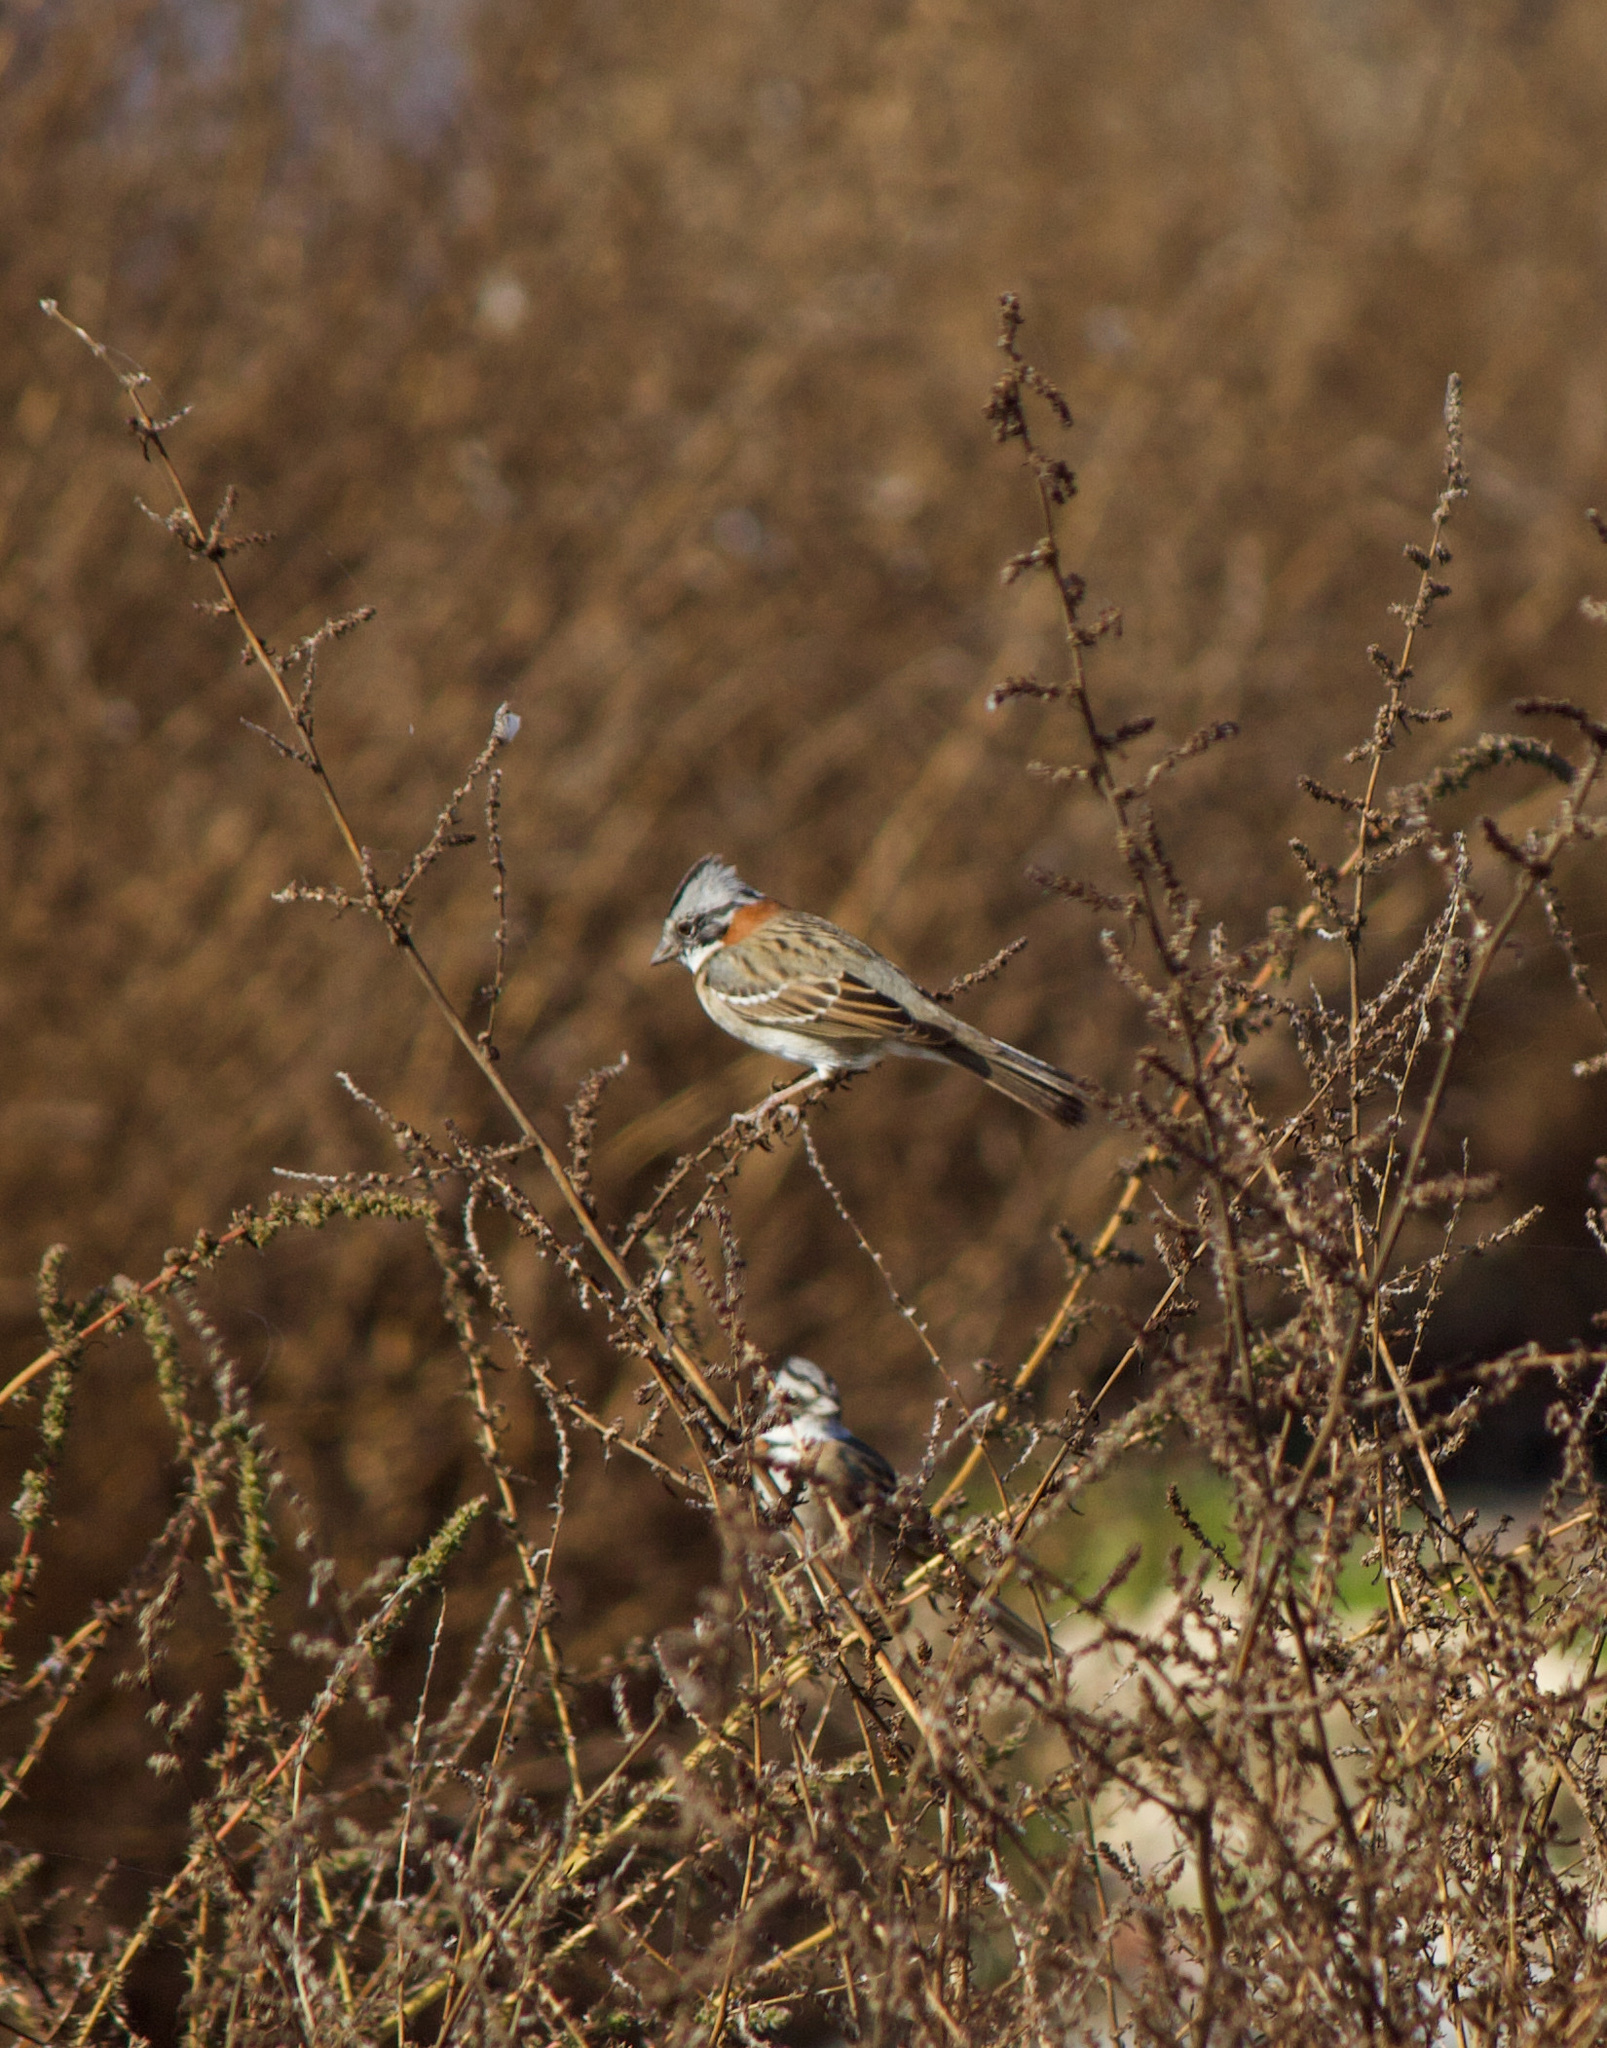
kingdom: Animalia
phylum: Chordata
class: Aves
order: Passeriformes
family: Passerellidae
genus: Zonotrichia
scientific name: Zonotrichia capensis
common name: Rufous-collared sparrow
